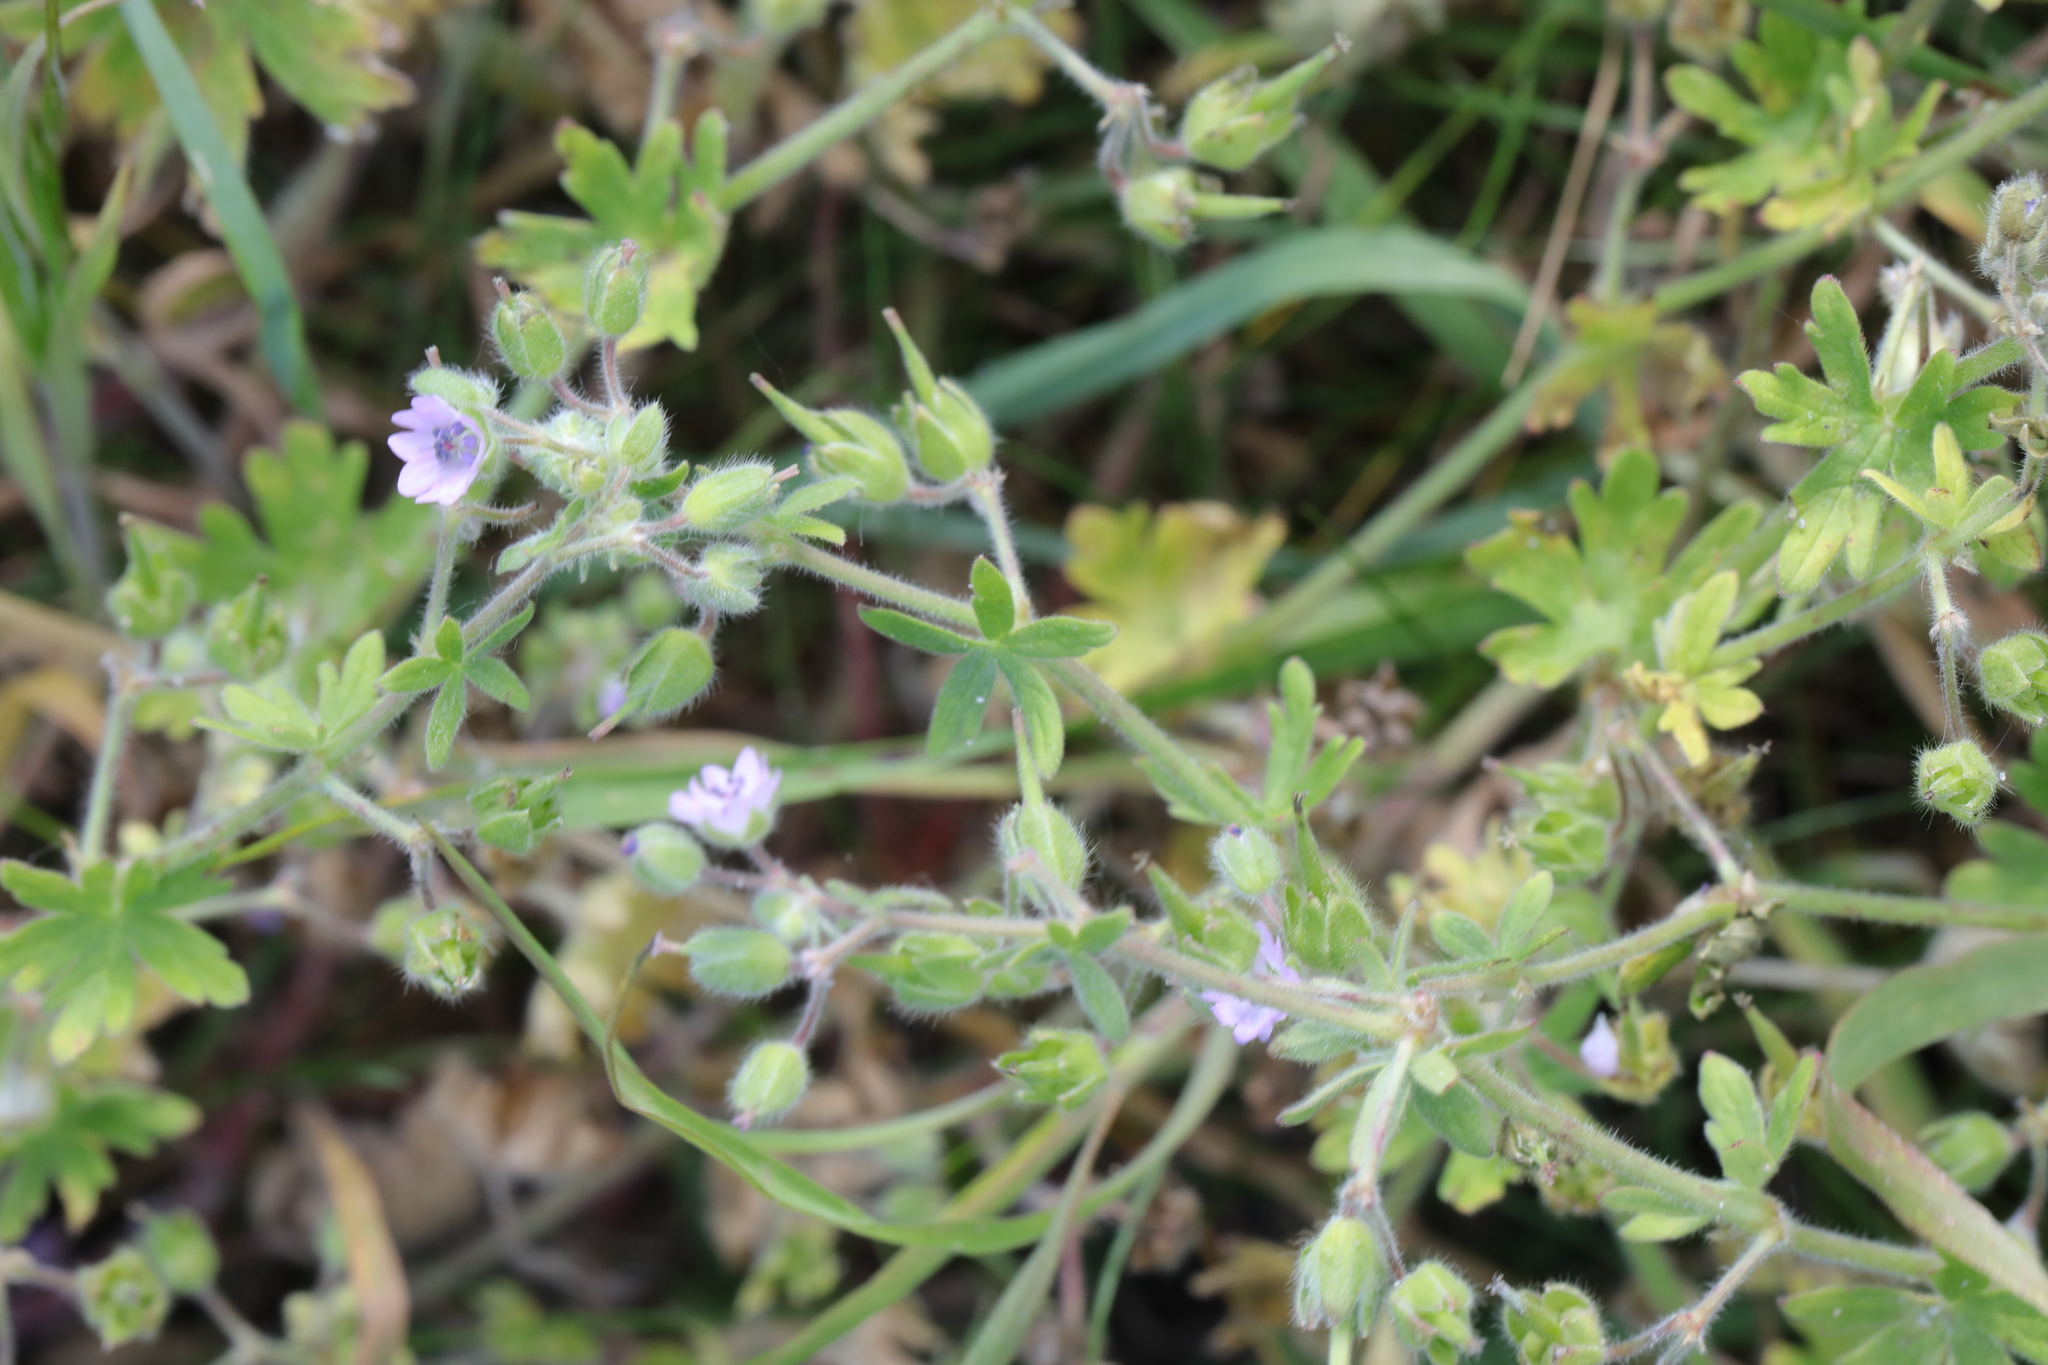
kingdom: Plantae
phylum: Tracheophyta
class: Magnoliopsida
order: Geraniales
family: Geraniaceae
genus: Geranium
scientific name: Geranium molle
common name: Dove's-foot crane's-bill
